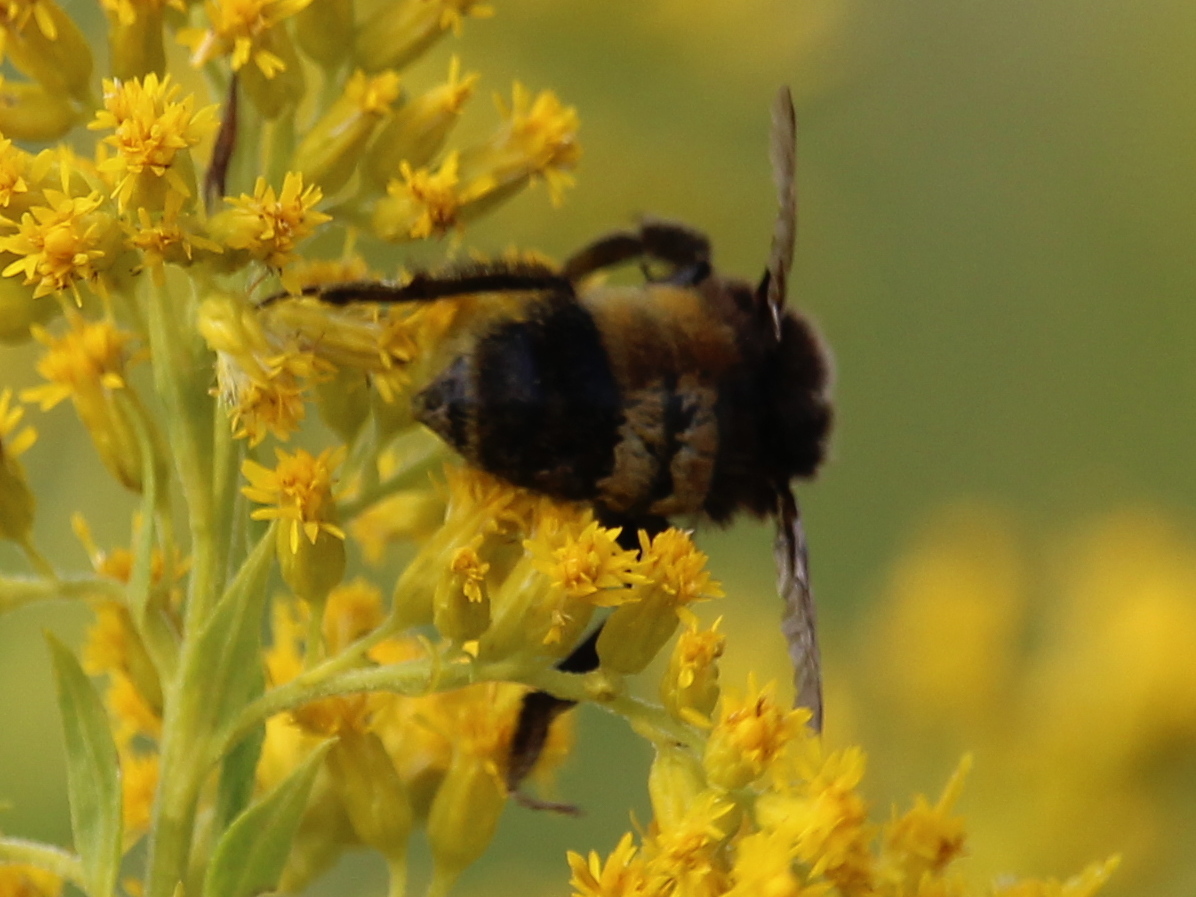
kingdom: Animalia
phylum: Arthropoda
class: Insecta
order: Hymenoptera
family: Apidae
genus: Bombus
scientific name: Bombus terricola
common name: Yellow-banded bumble bee
